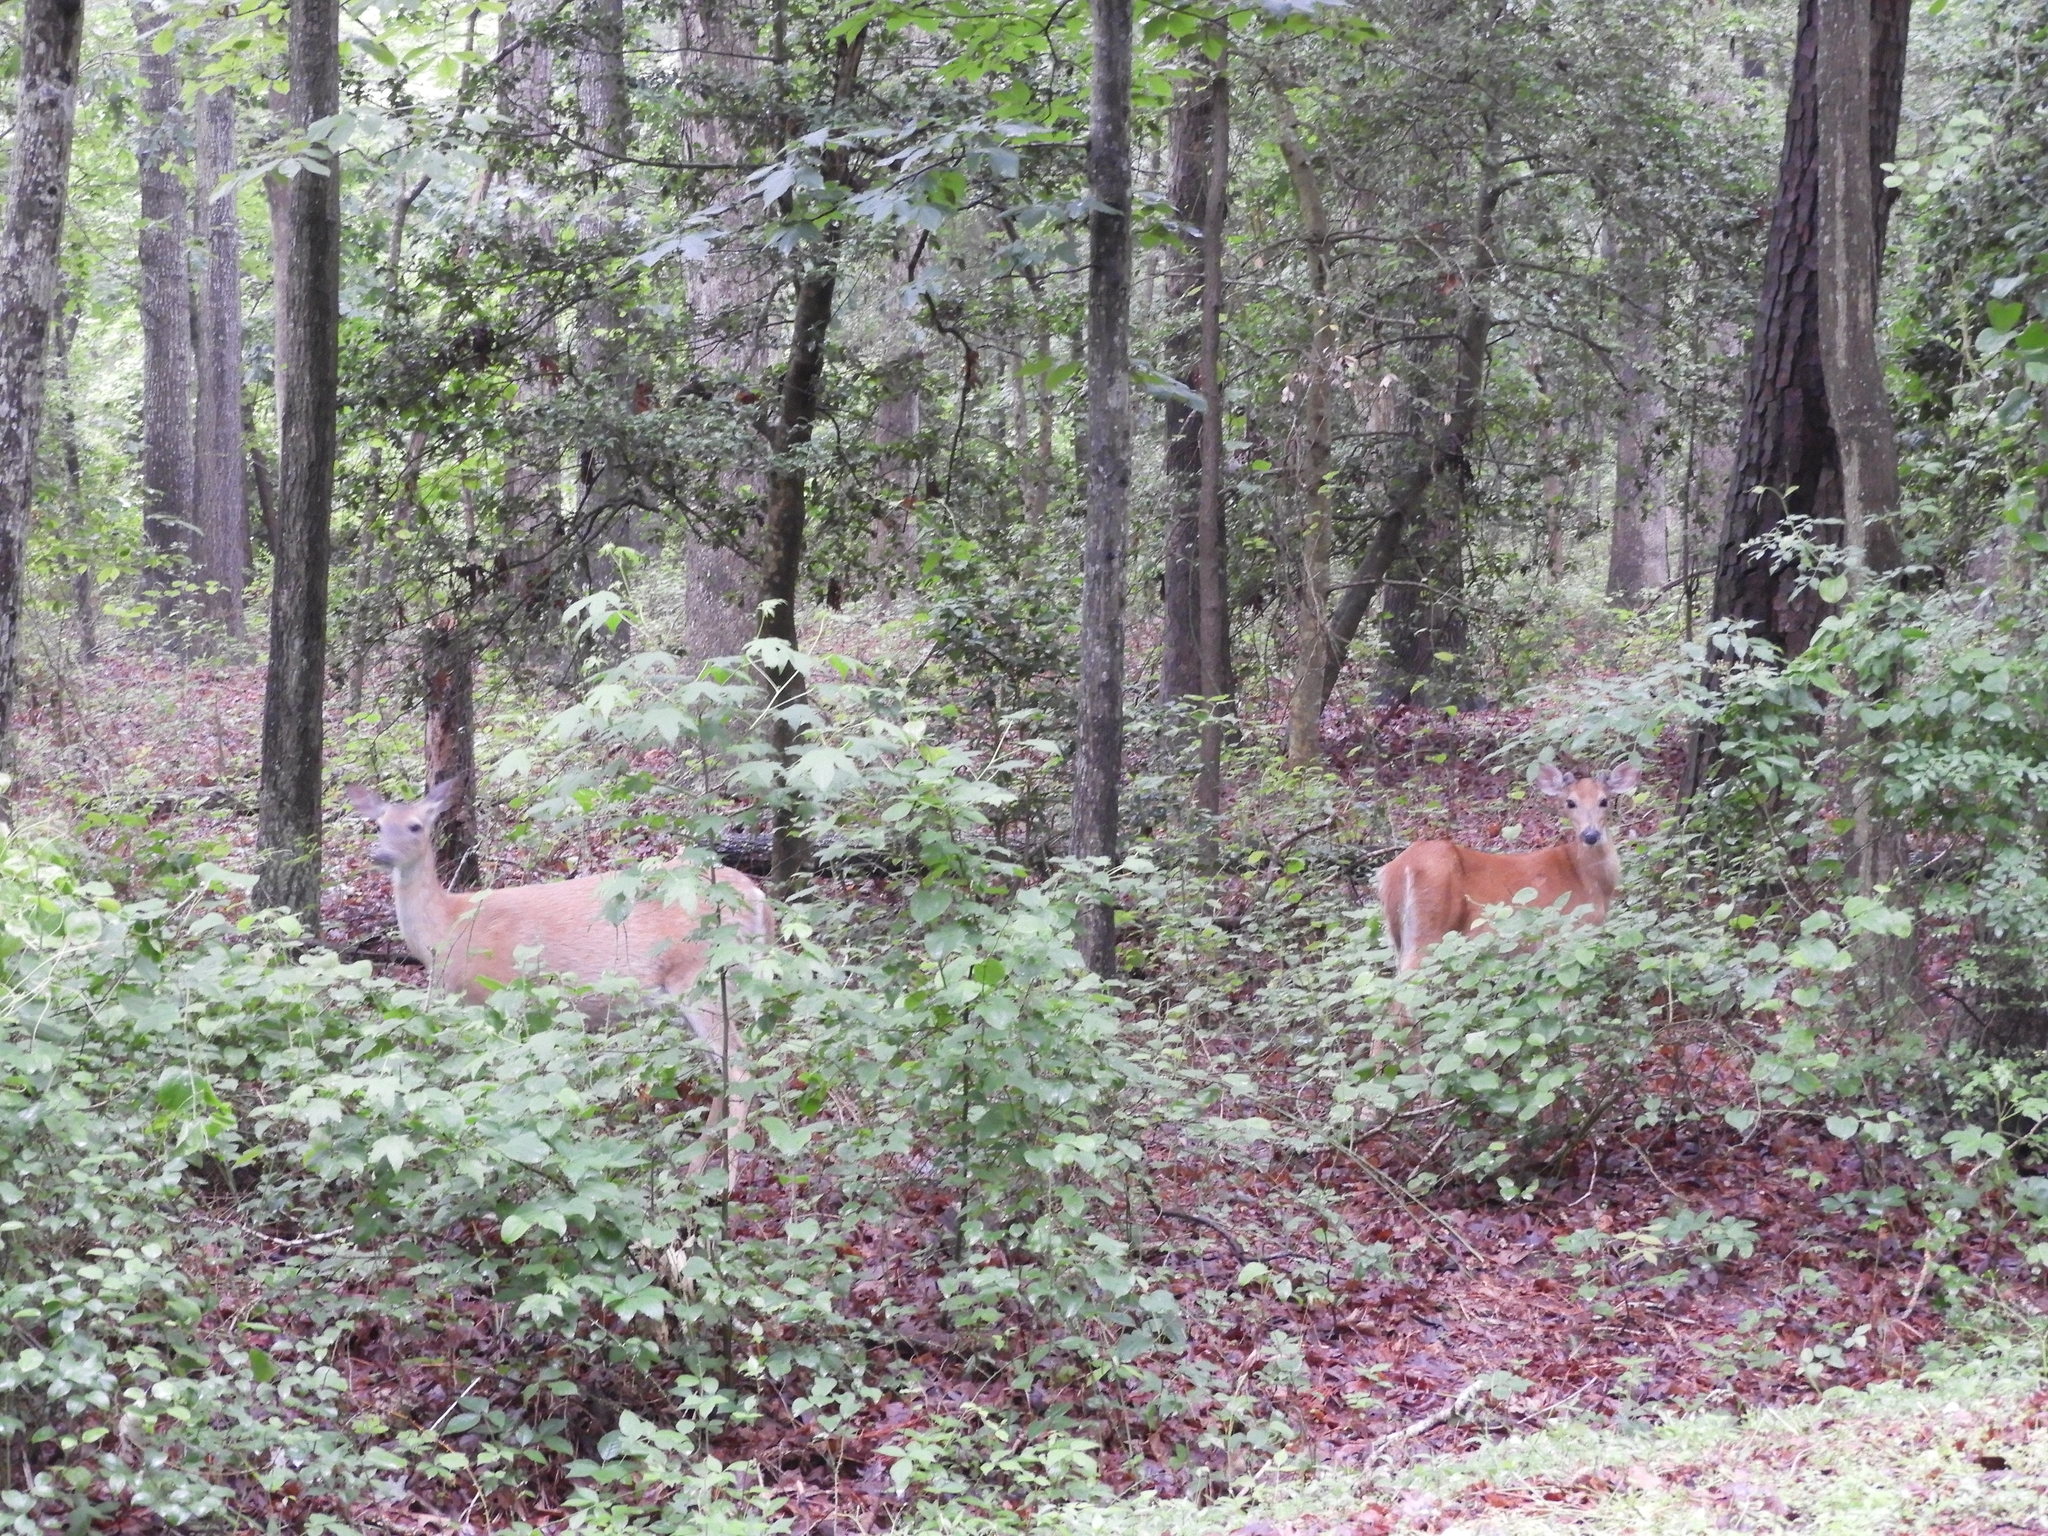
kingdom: Animalia
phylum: Chordata
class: Mammalia
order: Artiodactyla
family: Cervidae
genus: Odocoileus
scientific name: Odocoileus virginianus
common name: White-tailed deer
